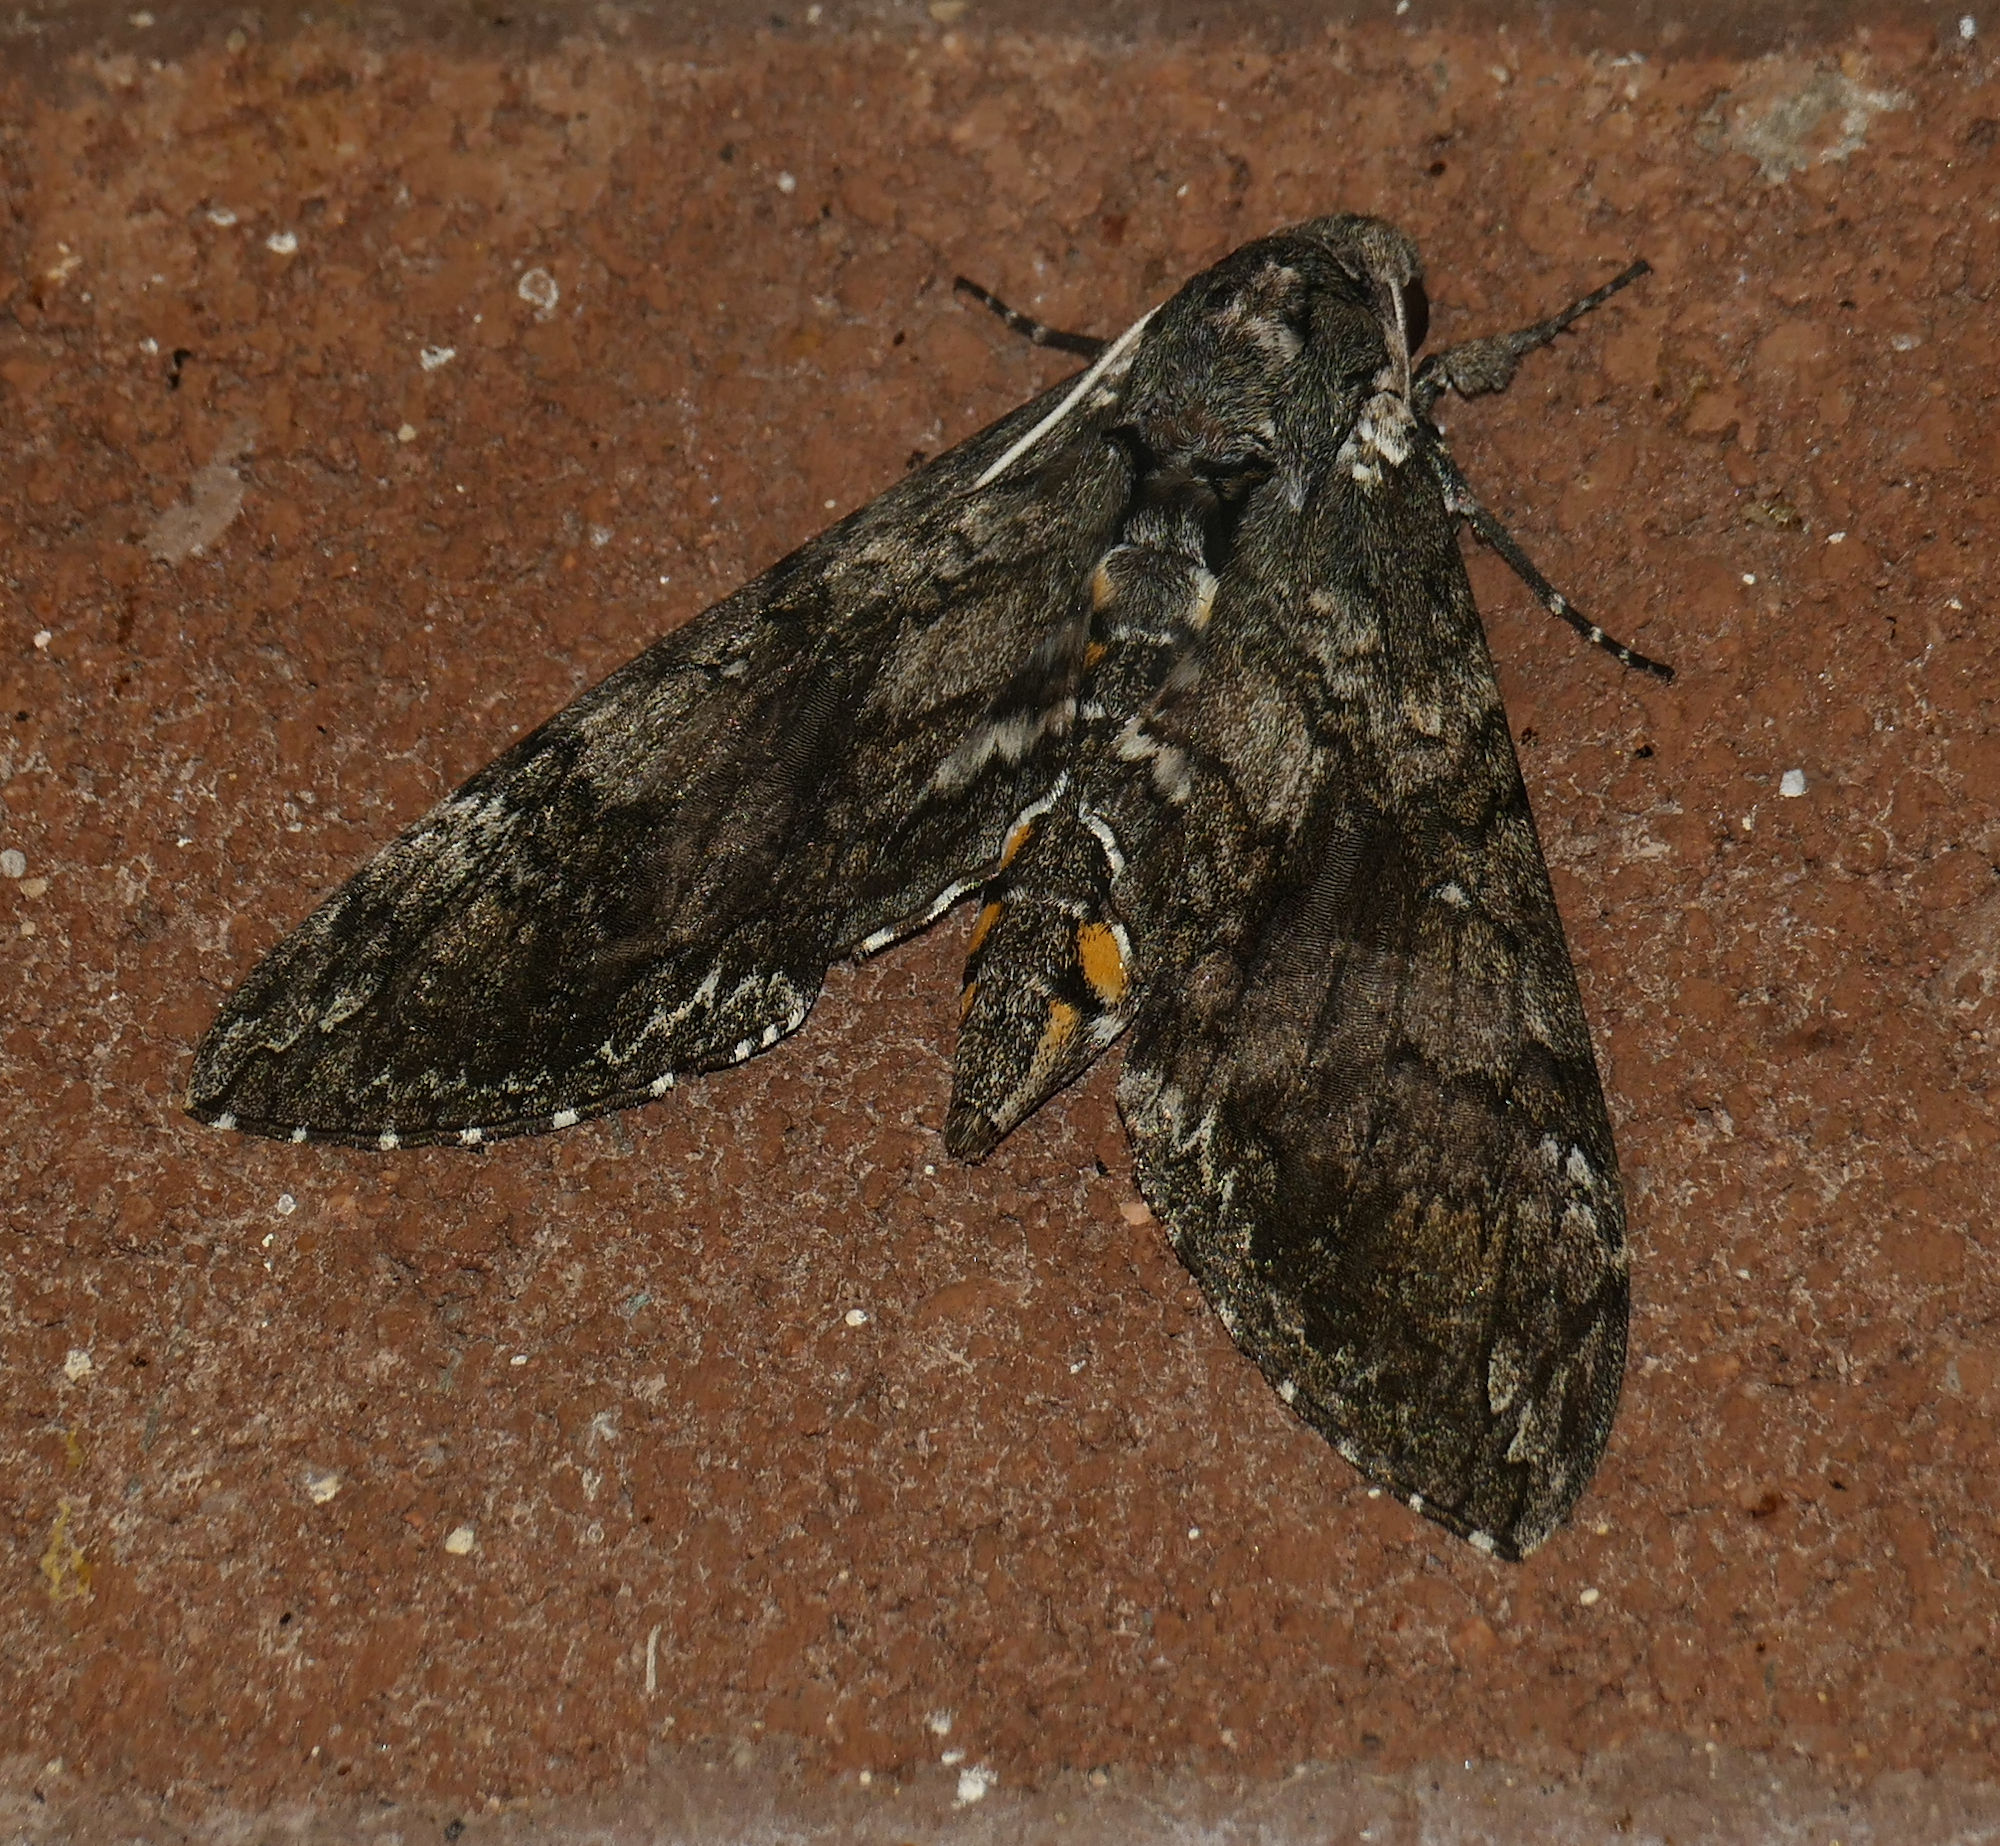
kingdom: Animalia
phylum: Arthropoda
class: Insecta
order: Lepidoptera
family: Sphingidae
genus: Manduca
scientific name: Manduca sexta
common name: Carolina sphinx
